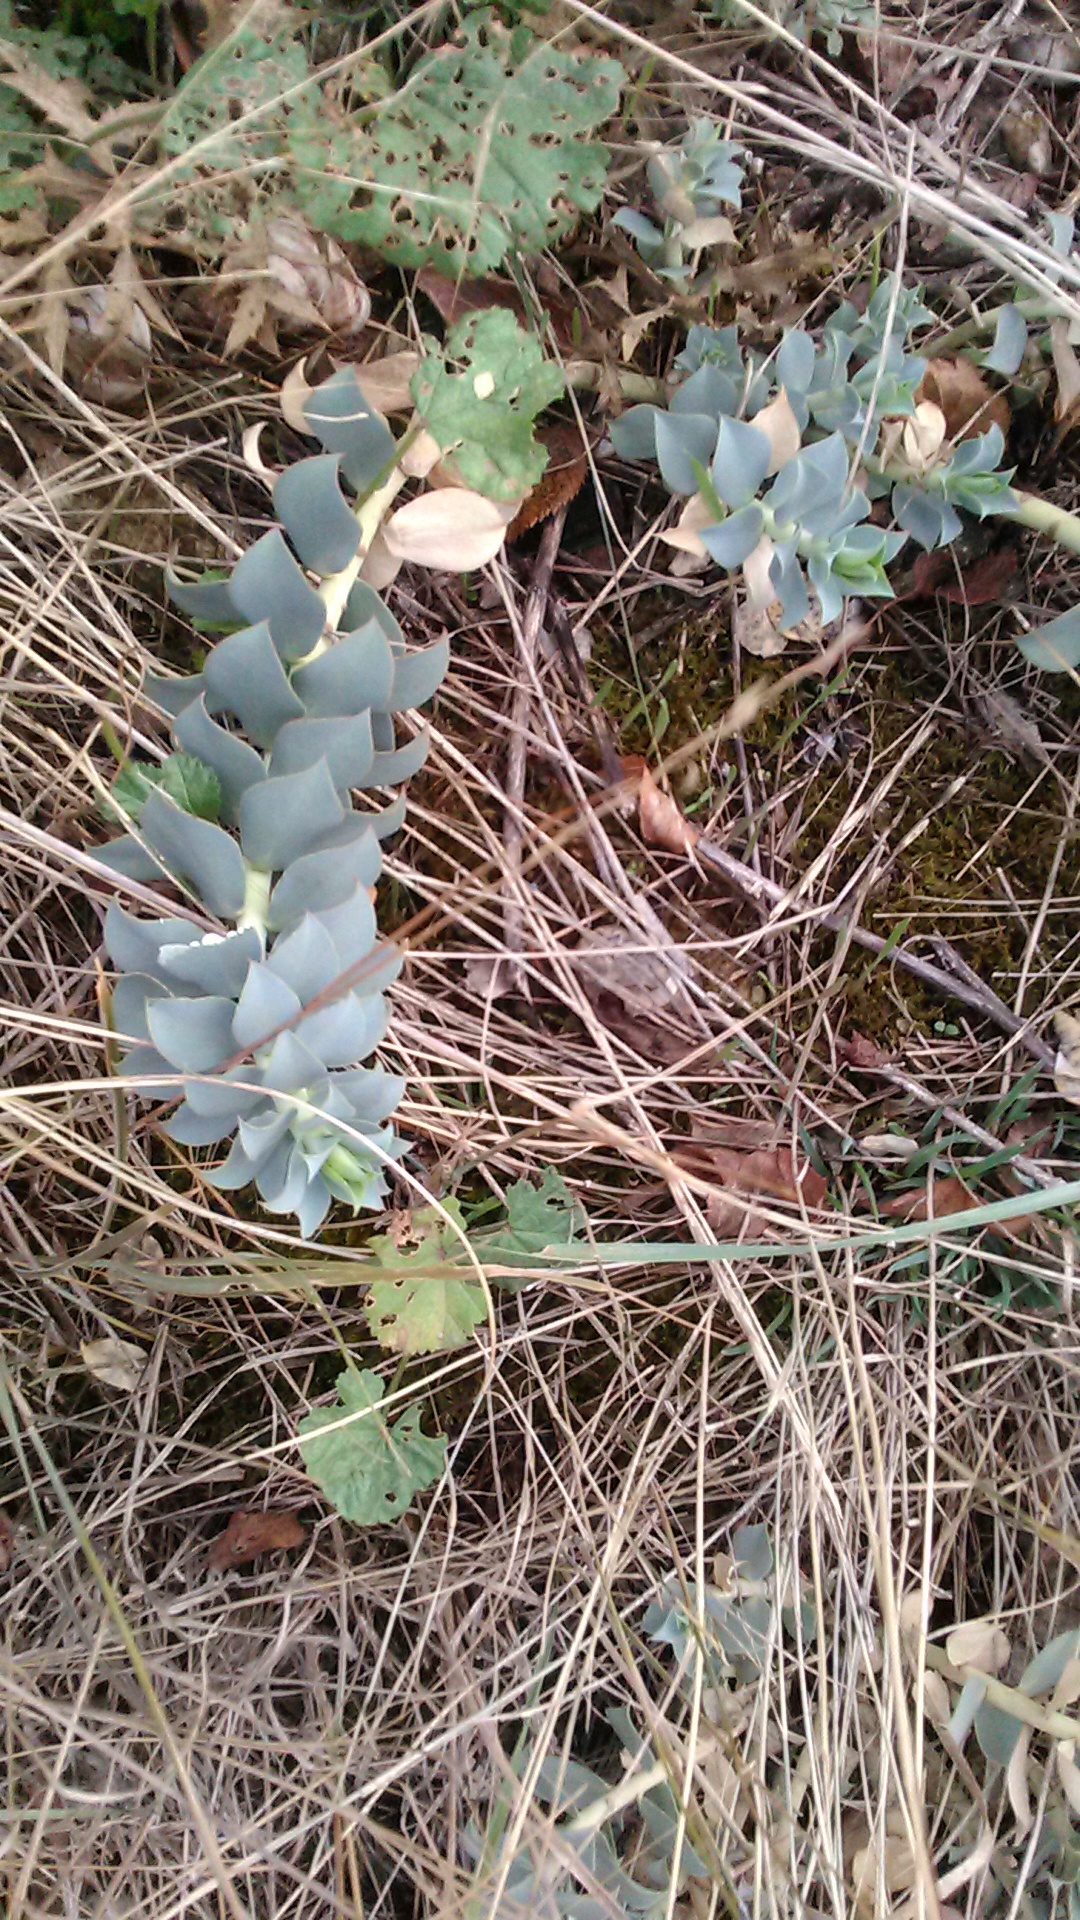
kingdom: Plantae
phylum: Tracheophyta
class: Magnoliopsida
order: Malpighiales
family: Euphorbiaceae
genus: Euphorbia
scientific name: Euphorbia myrsinites
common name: Myrtle spurge
